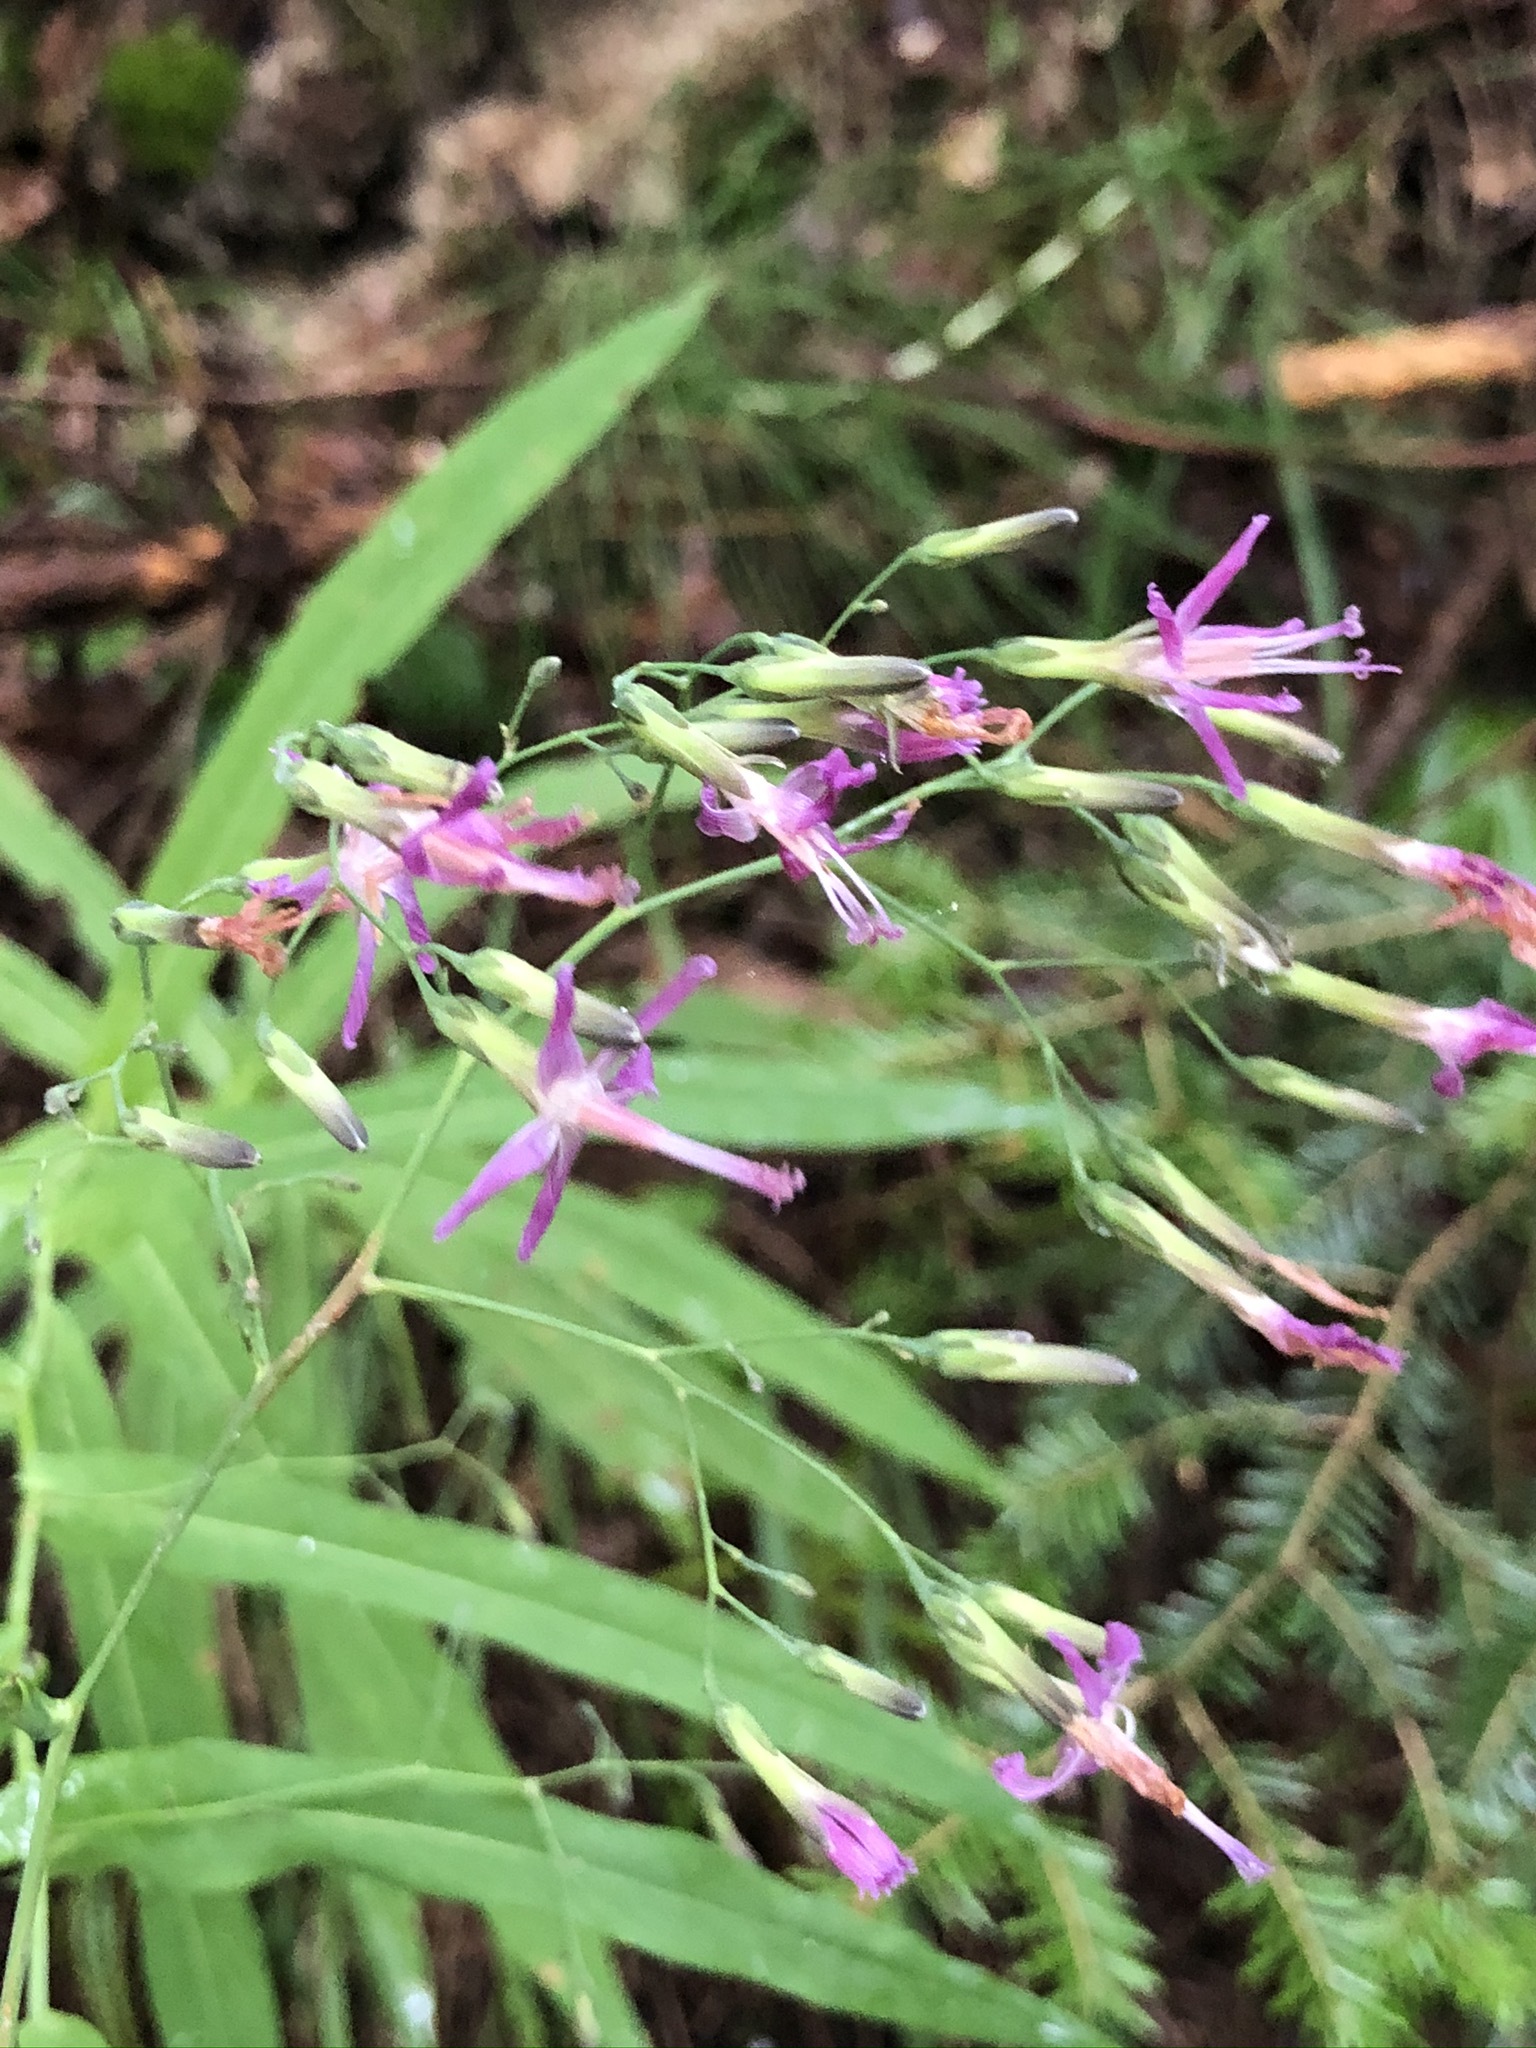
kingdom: Plantae
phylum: Tracheophyta
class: Magnoliopsida
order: Asterales
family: Asteraceae
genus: Prenanthes
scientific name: Prenanthes purpurea
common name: Purple lettuce
